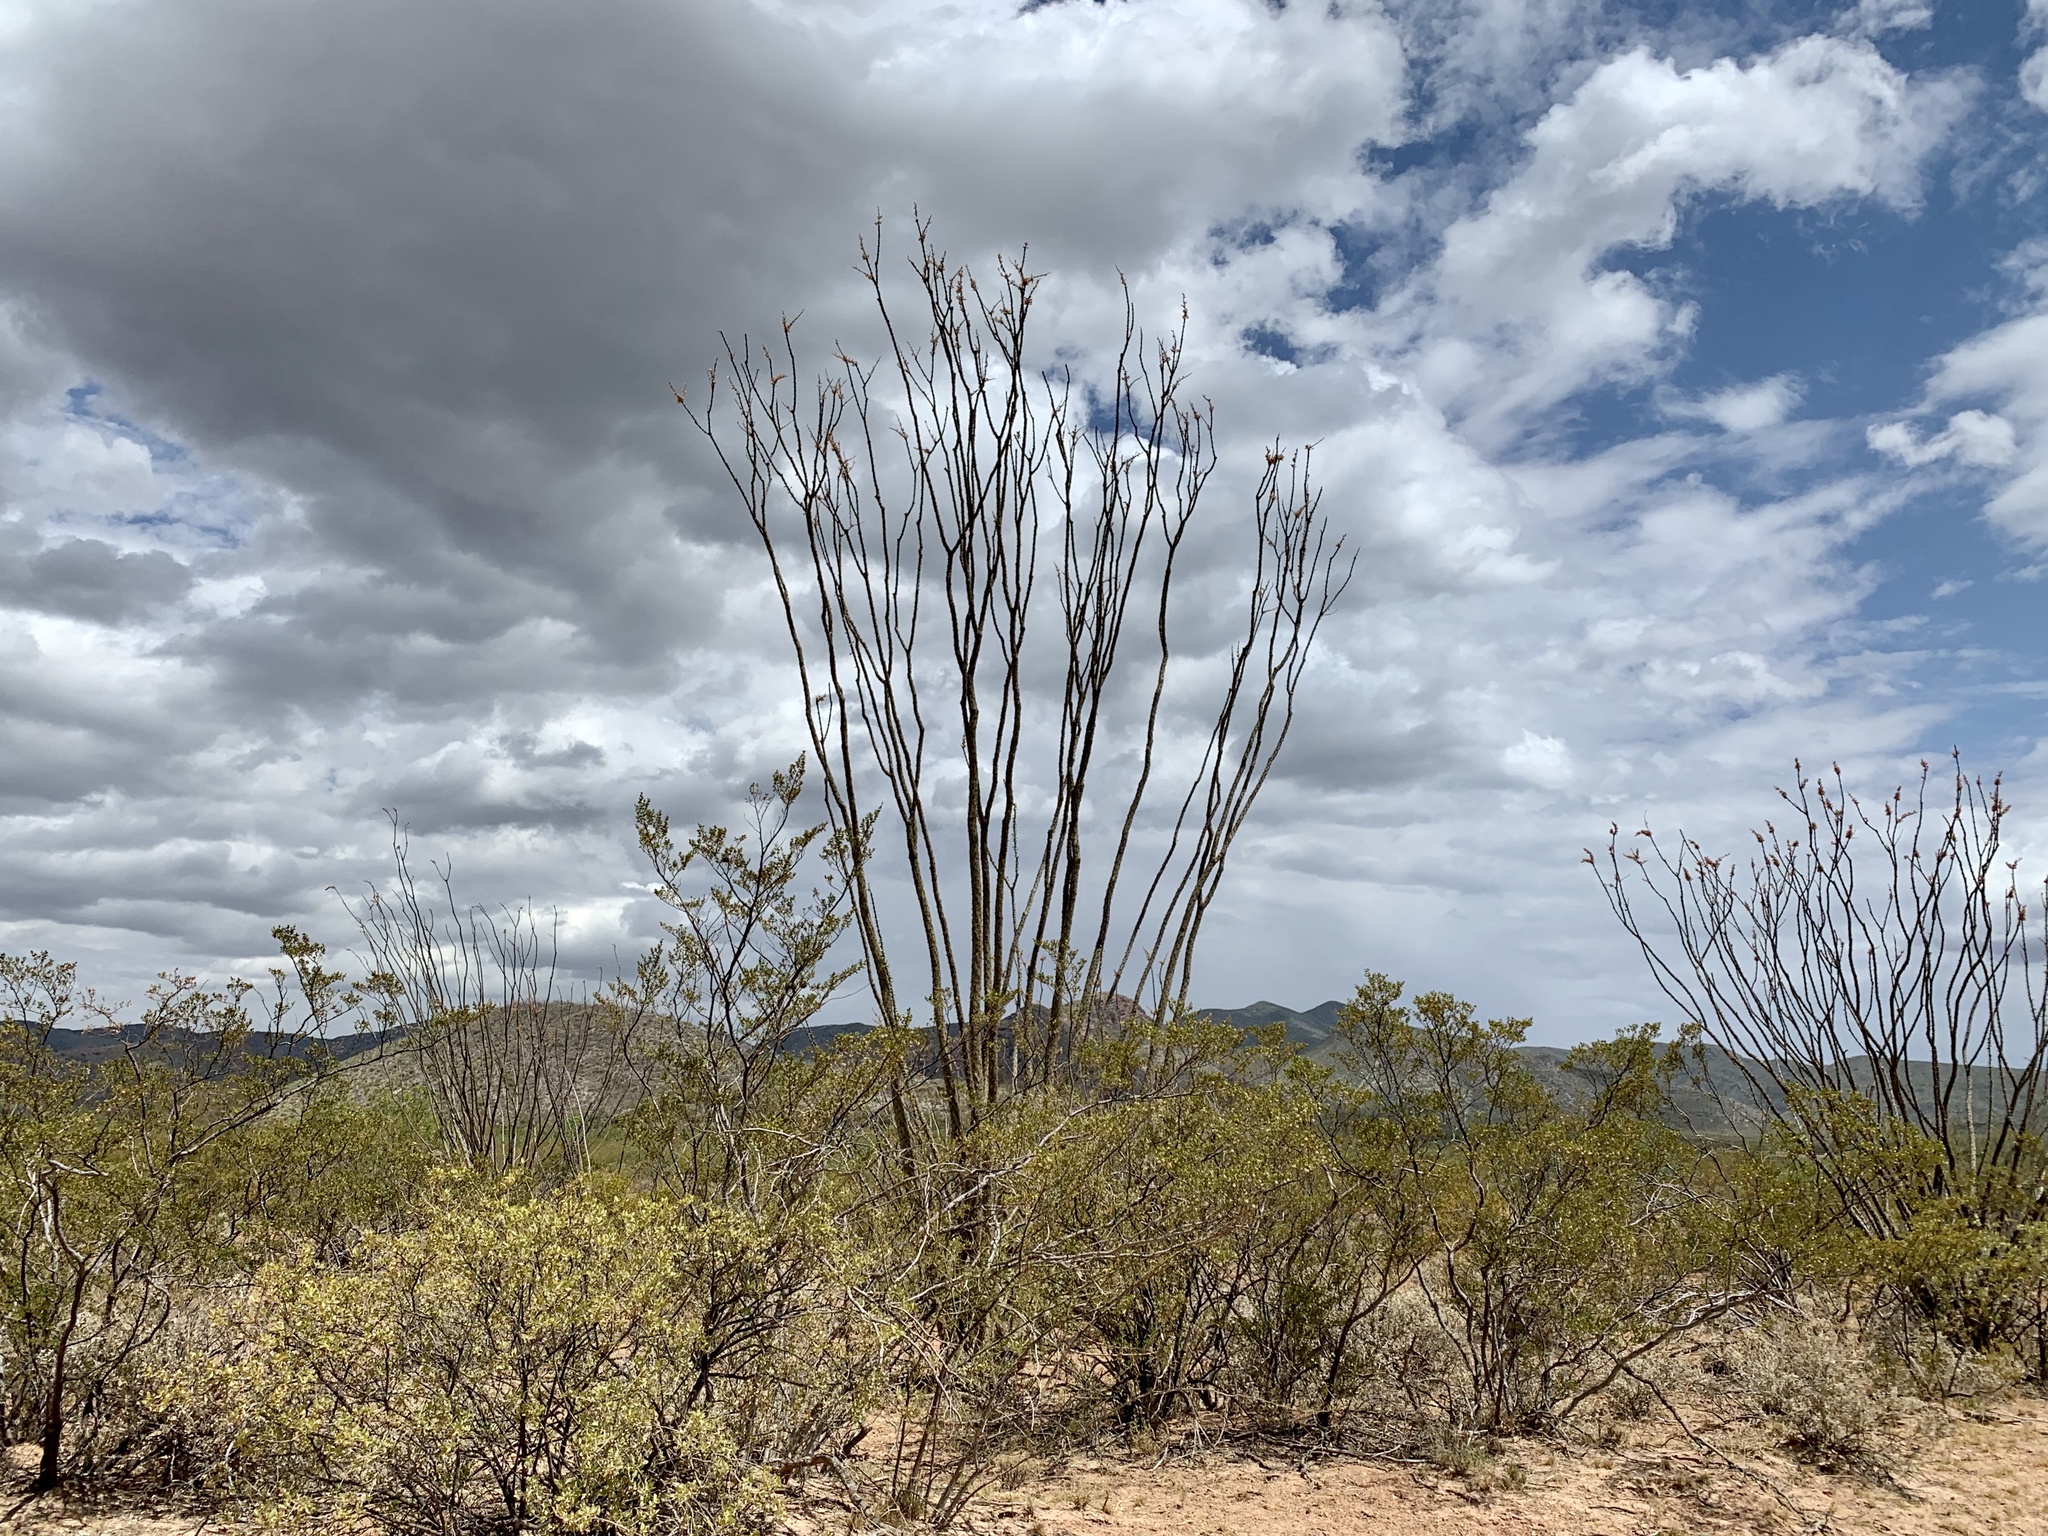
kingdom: Plantae
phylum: Tracheophyta
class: Magnoliopsida
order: Ericales
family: Fouquieriaceae
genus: Fouquieria
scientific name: Fouquieria splendens
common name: Vine-cactus
